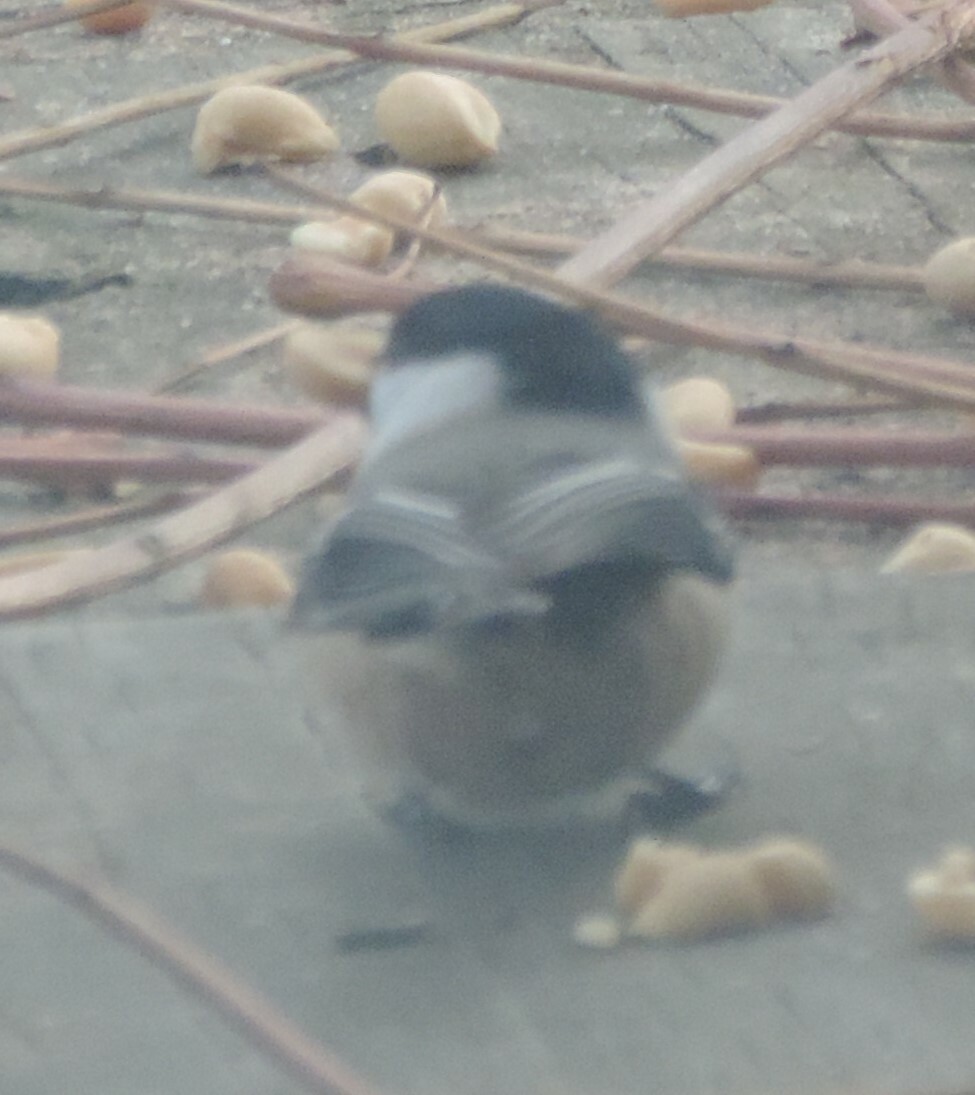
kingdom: Animalia
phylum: Chordata
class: Aves
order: Passeriformes
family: Paridae
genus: Poecile
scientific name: Poecile atricapillus
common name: Black-capped chickadee
